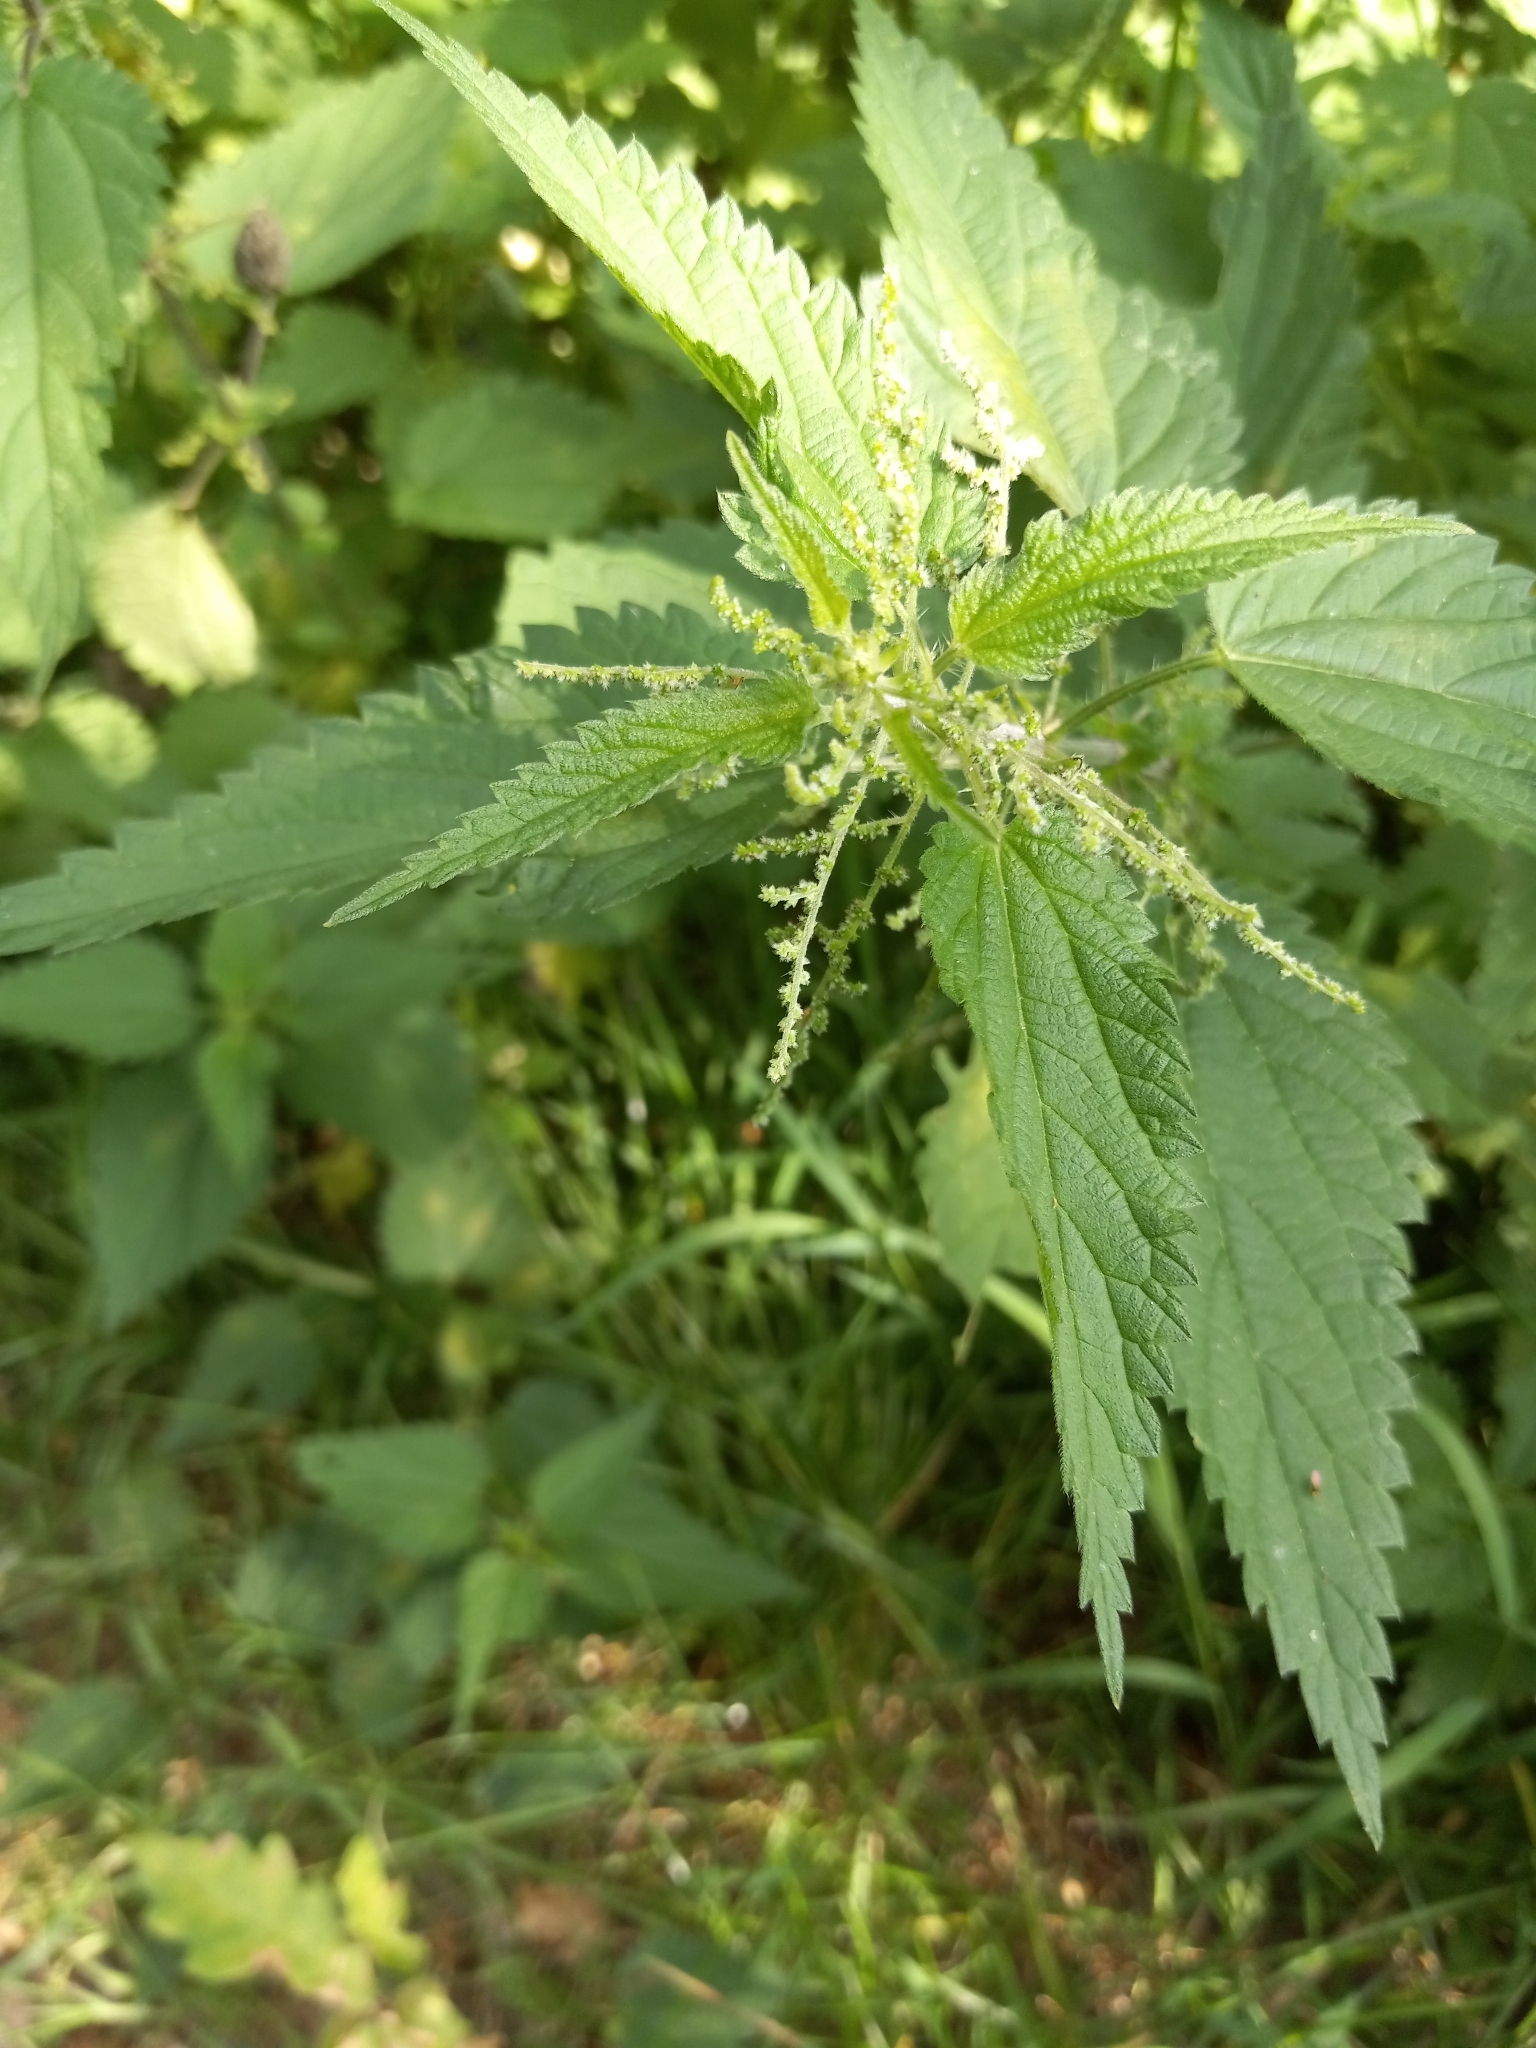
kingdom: Plantae
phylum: Tracheophyta
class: Magnoliopsida
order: Rosales
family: Urticaceae
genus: Urtica
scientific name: Urtica dioica
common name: Common nettle
